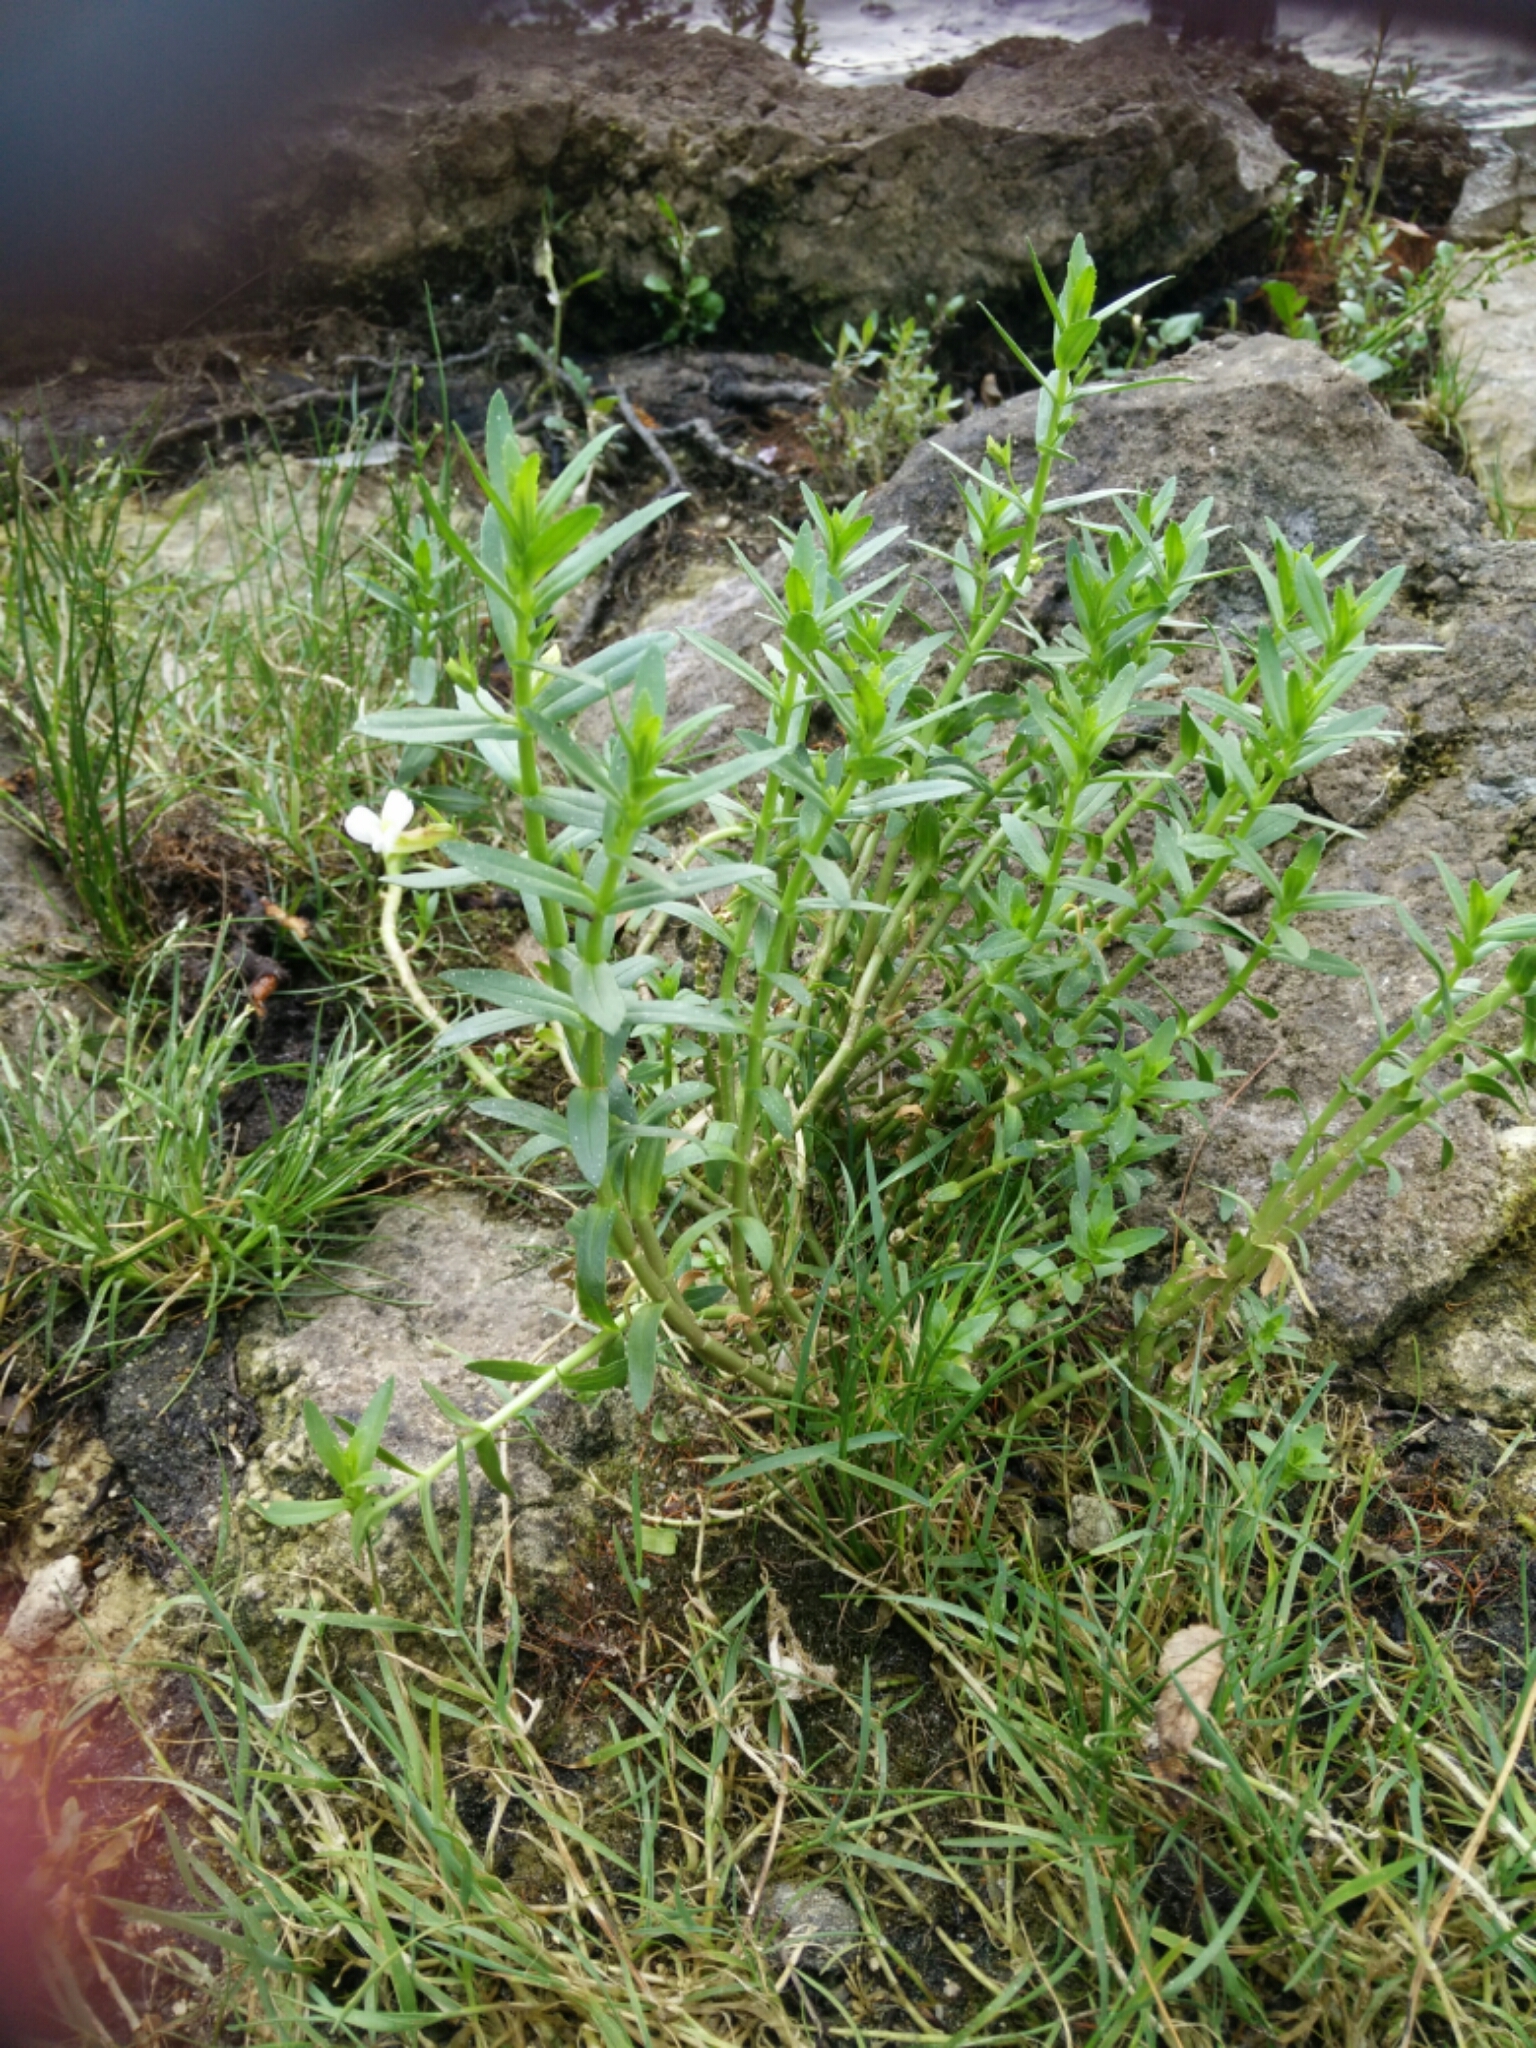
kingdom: Plantae
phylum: Tracheophyta
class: Magnoliopsida
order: Lamiales
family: Plantaginaceae
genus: Gratiola
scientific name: Gratiola officinalis
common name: Gratiola
